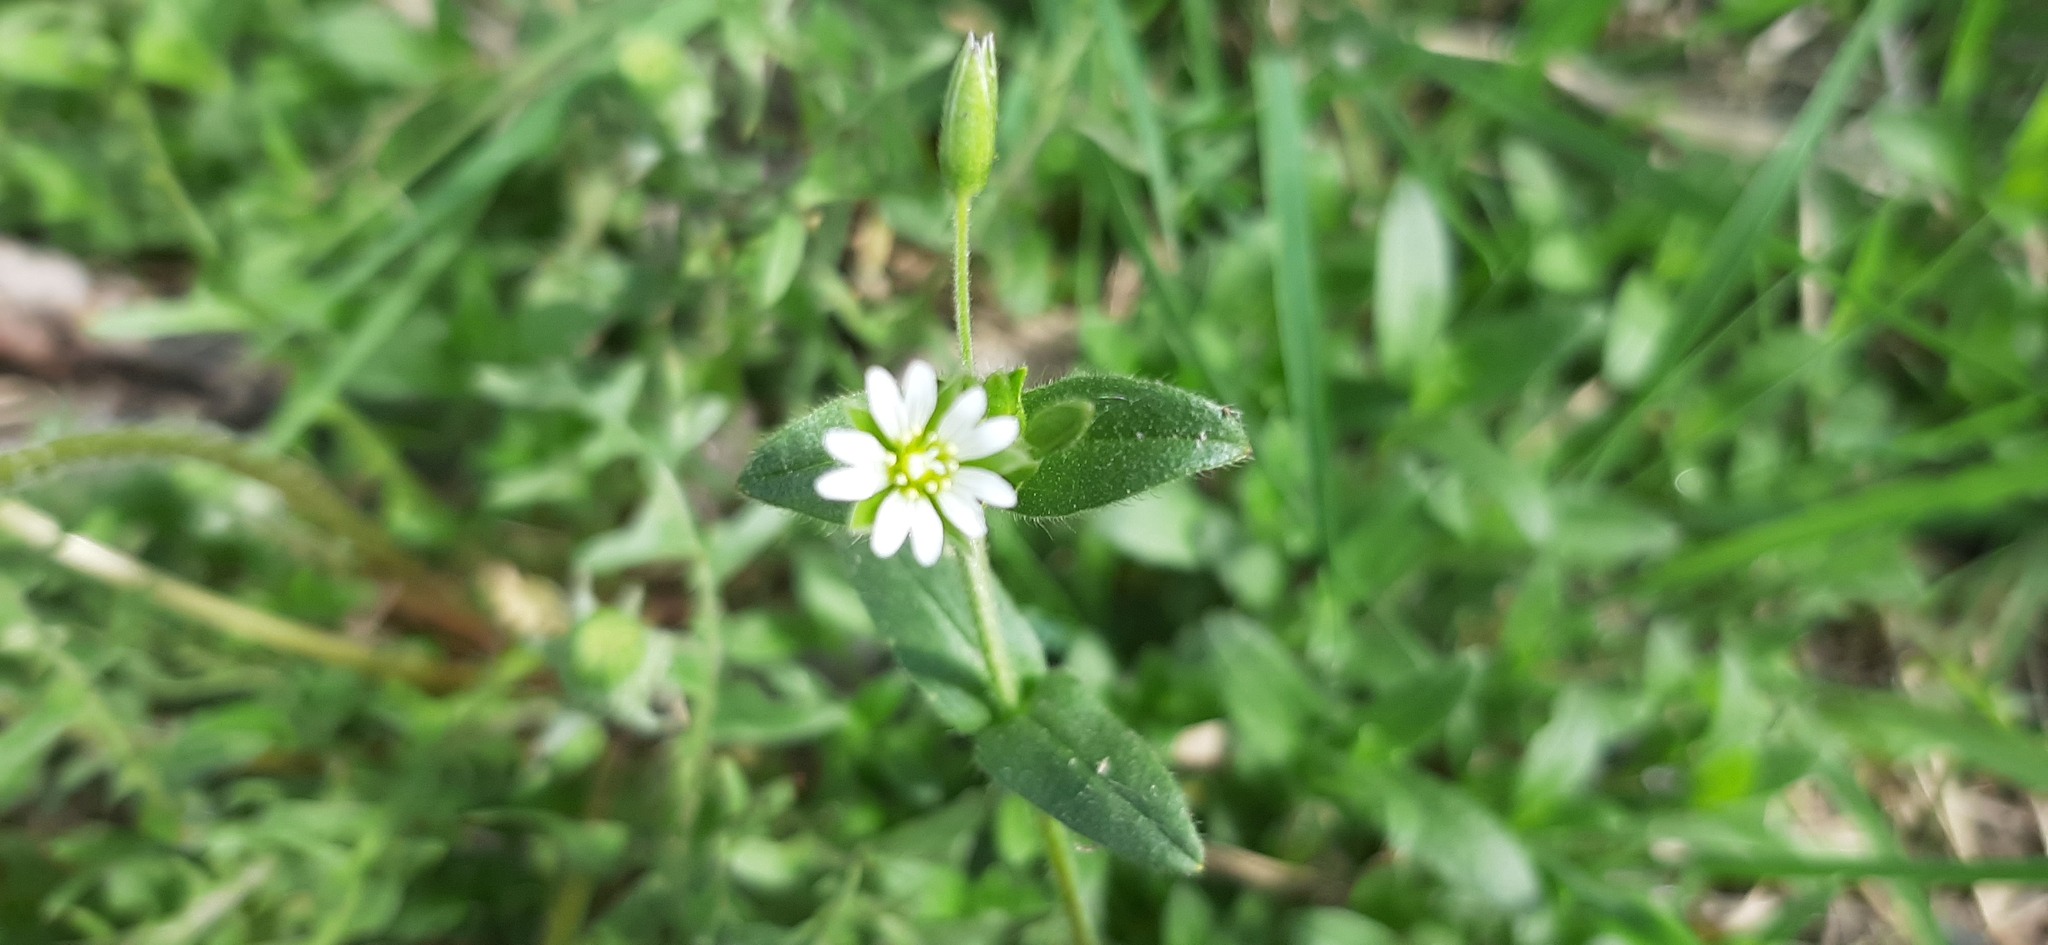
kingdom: Plantae
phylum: Tracheophyta
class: Magnoliopsida
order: Caryophyllales
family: Caryophyllaceae
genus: Cerastium
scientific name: Cerastium holosteoides
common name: Big chickweed
